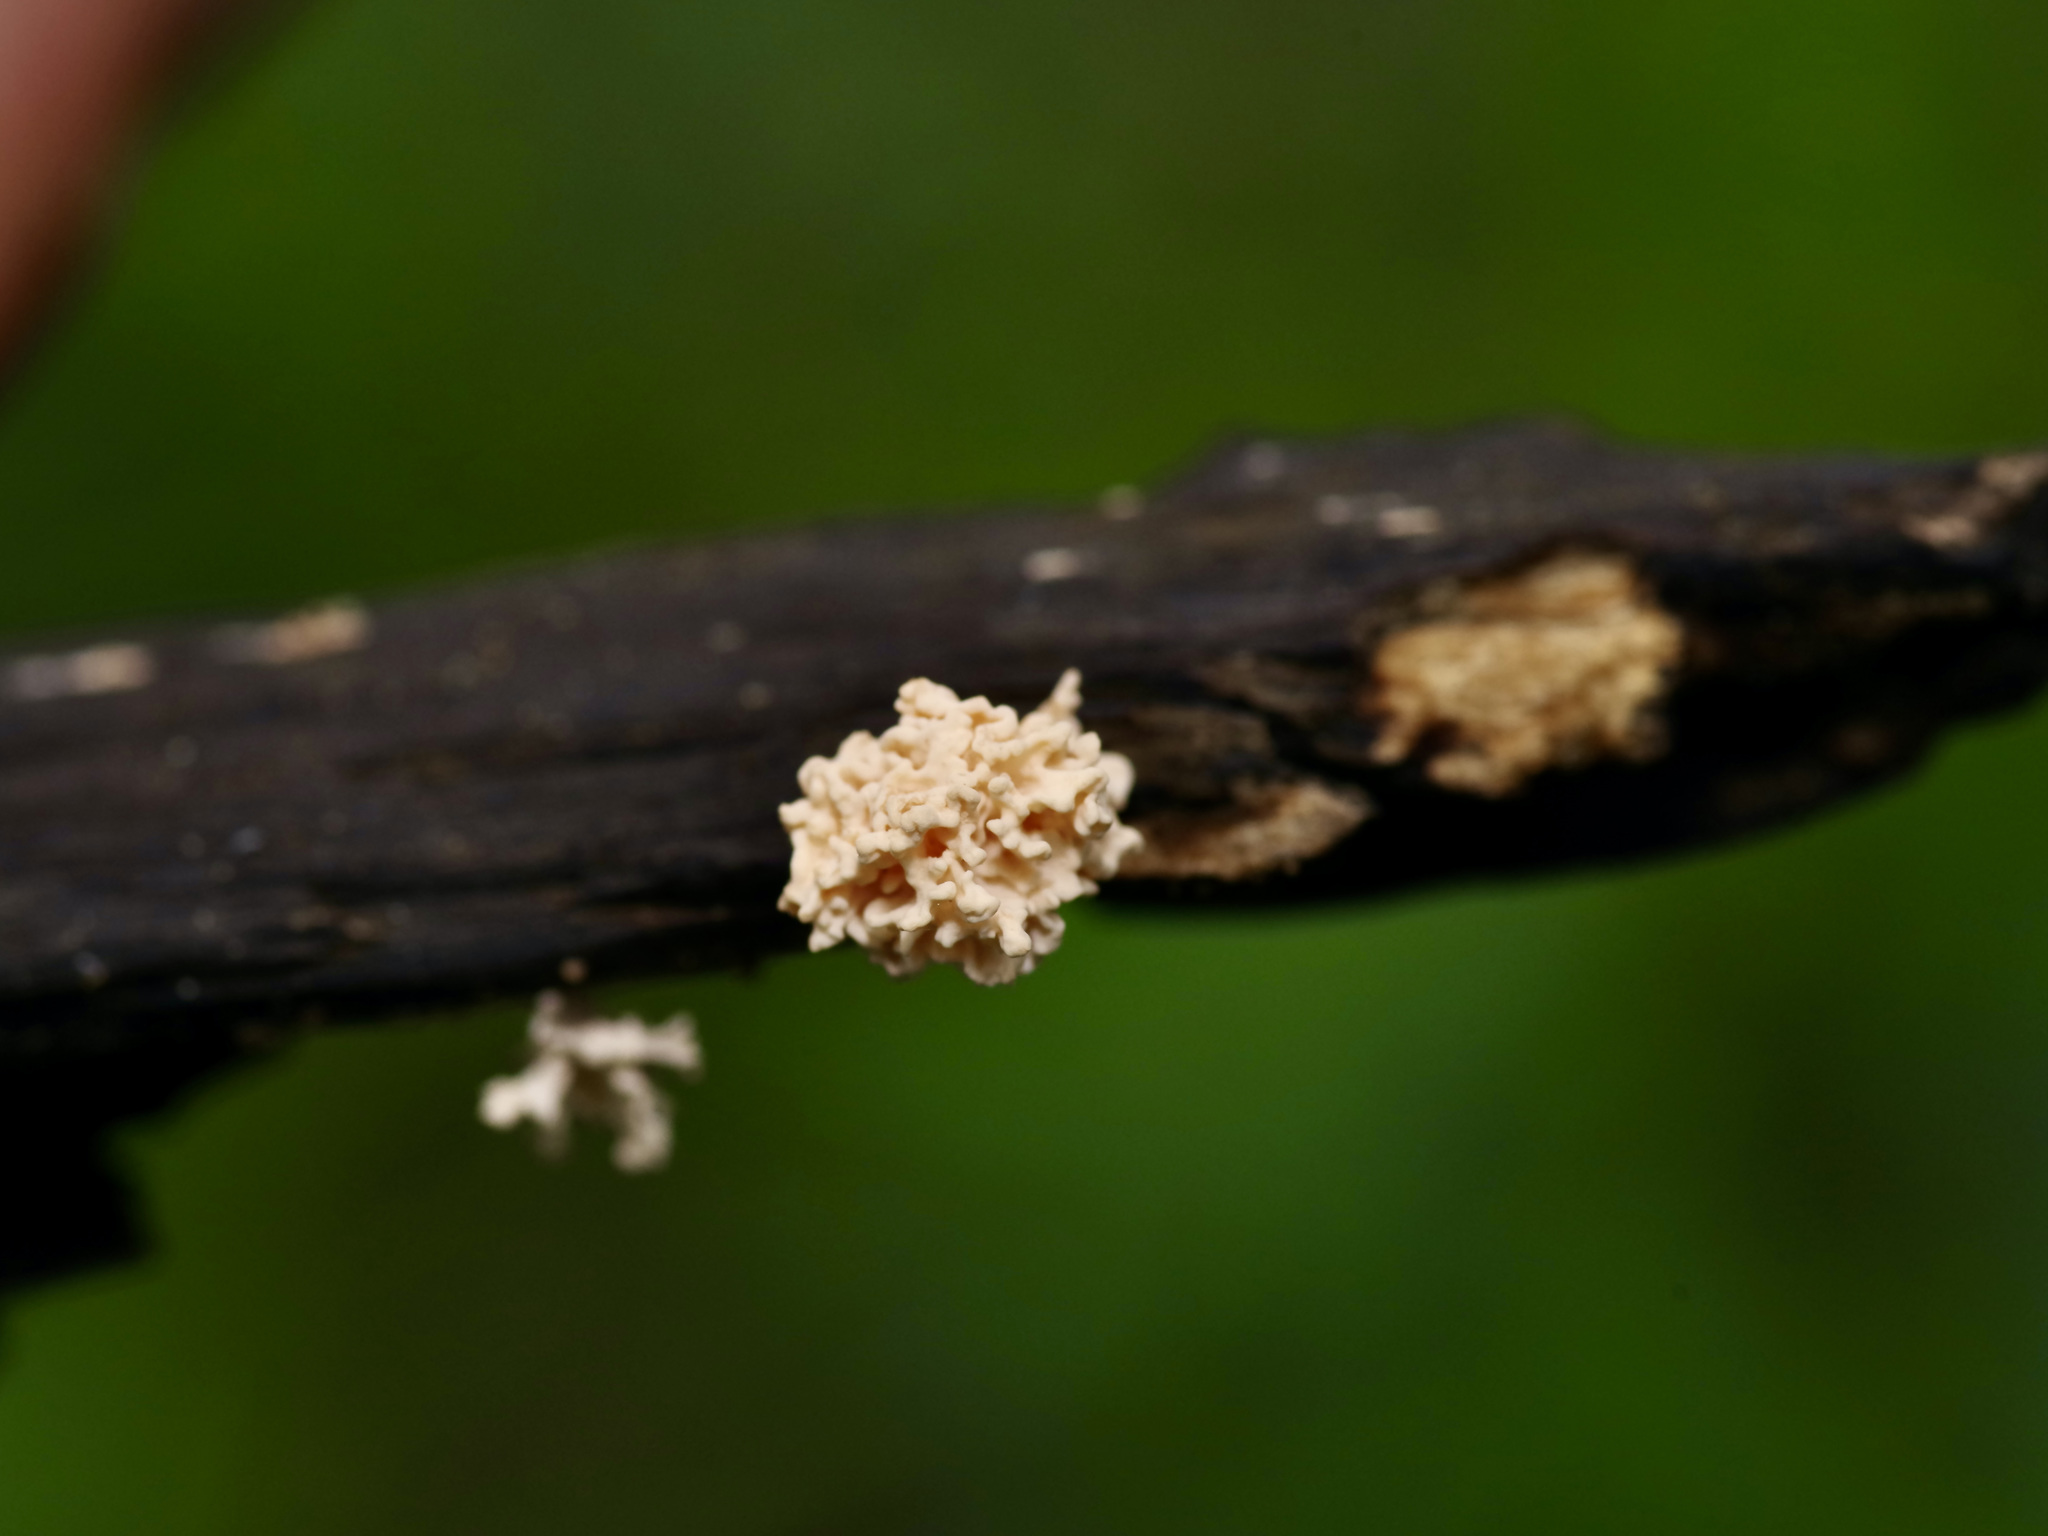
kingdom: Fungi
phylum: Ascomycota
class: Sordariomycetes
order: Xylariales
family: Xylariaceae
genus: Xylaria
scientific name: Xylaria cubensis
